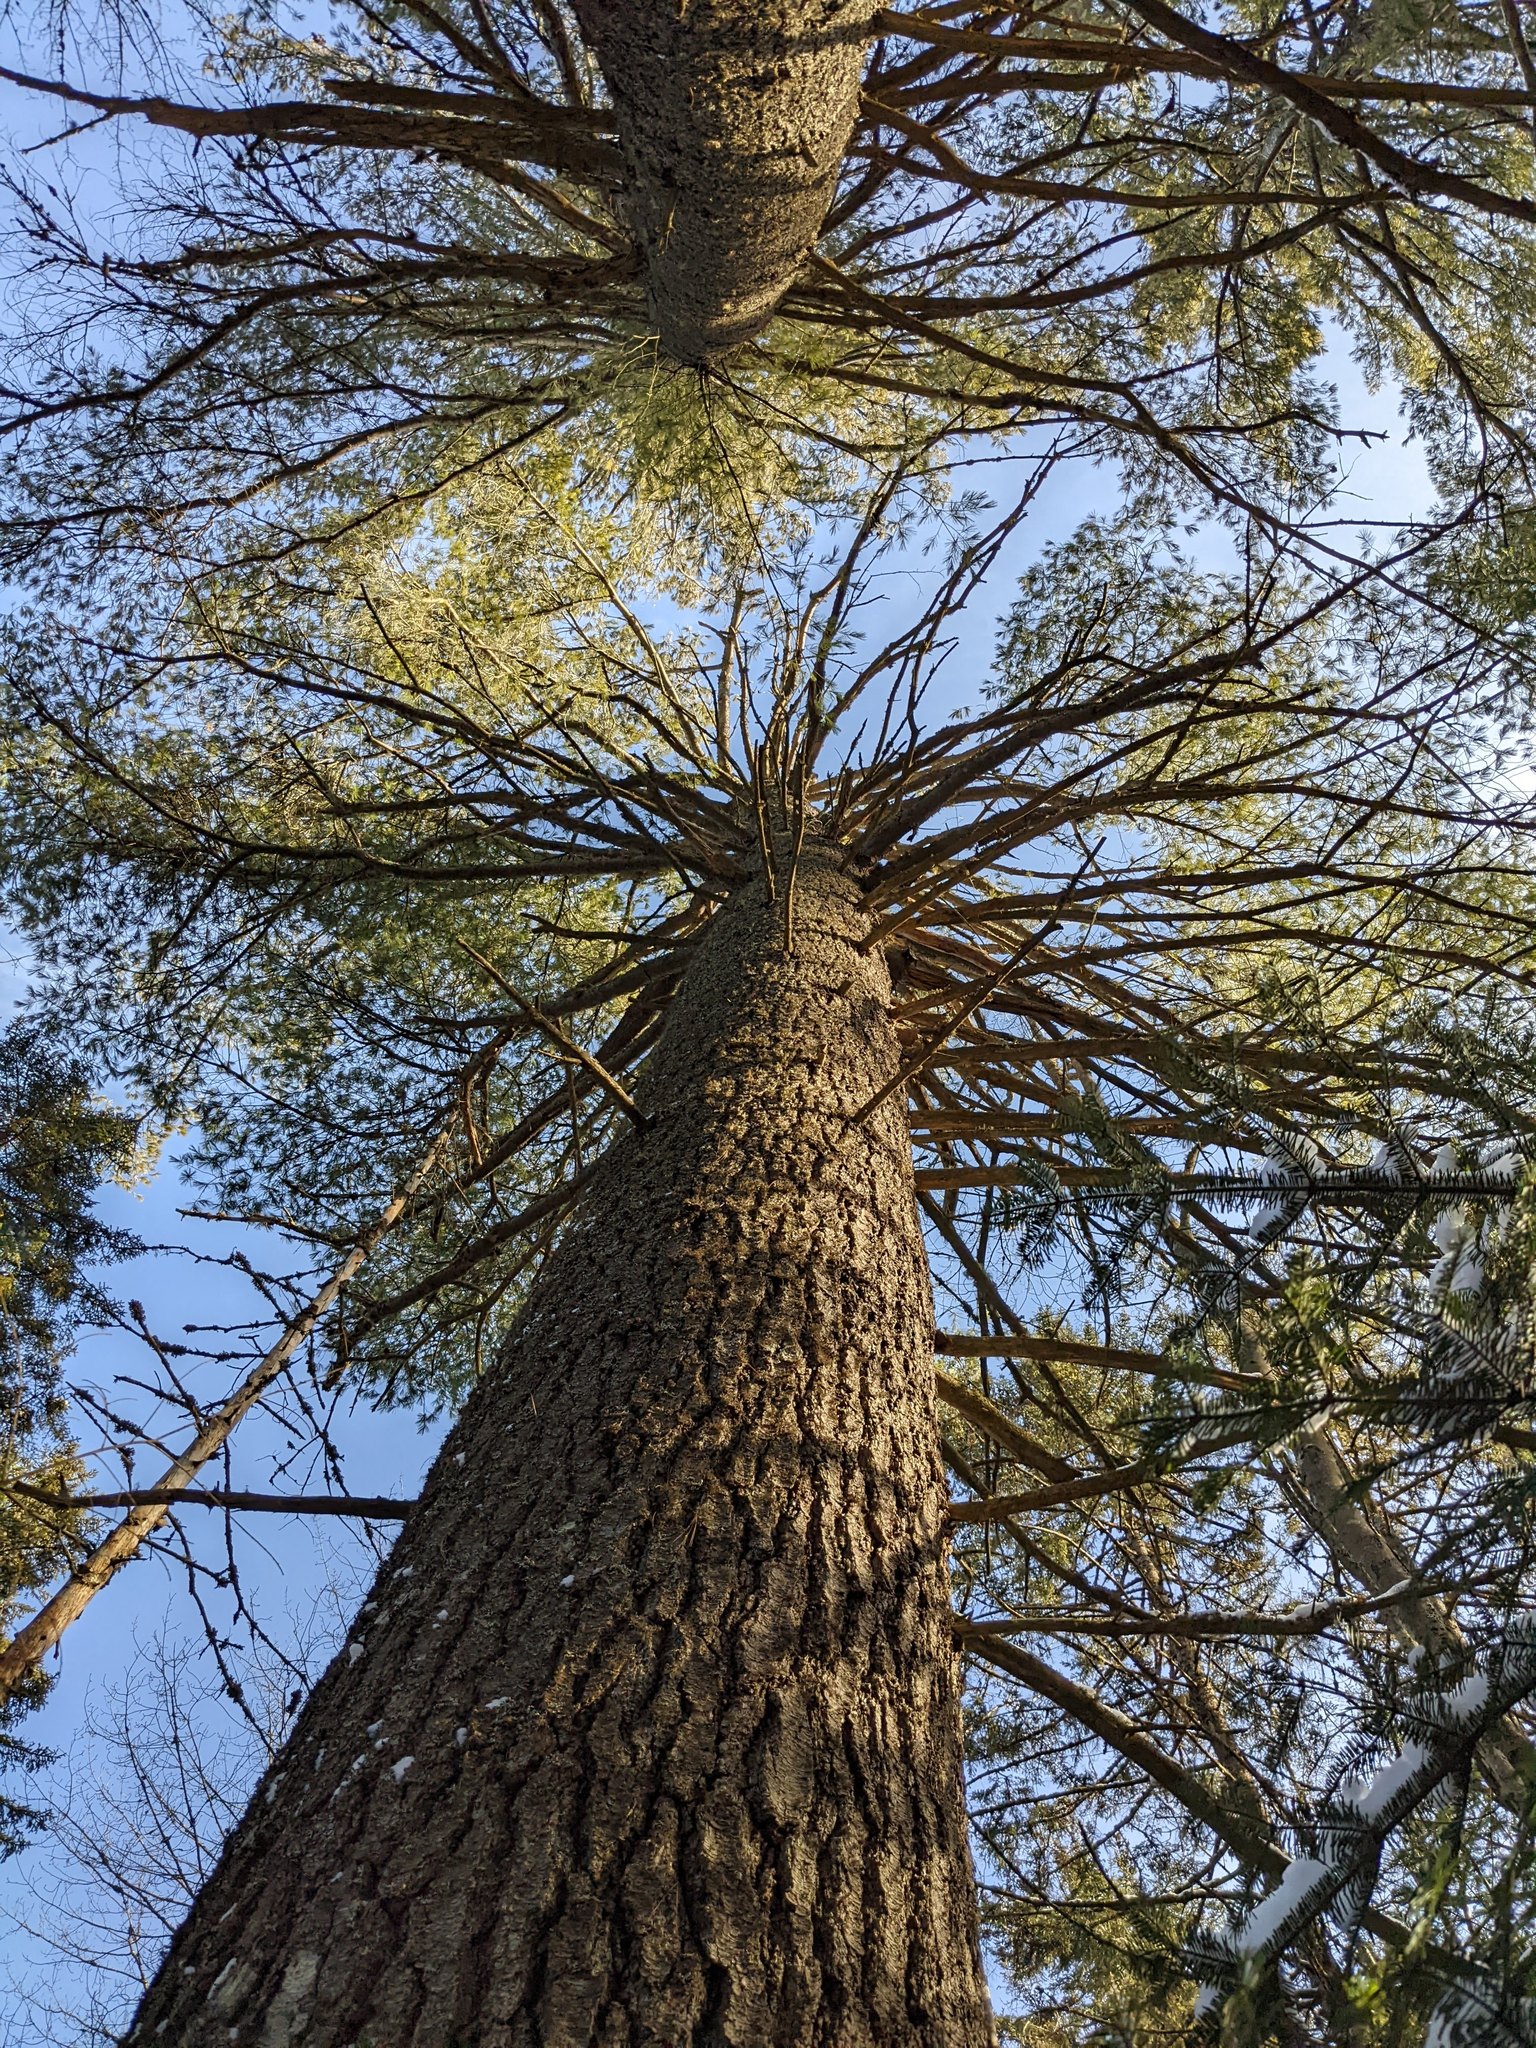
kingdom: Plantae
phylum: Tracheophyta
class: Pinopsida
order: Pinales
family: Pinaceae
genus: Pinus
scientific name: Pinus strobus
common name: Weymouth pine
